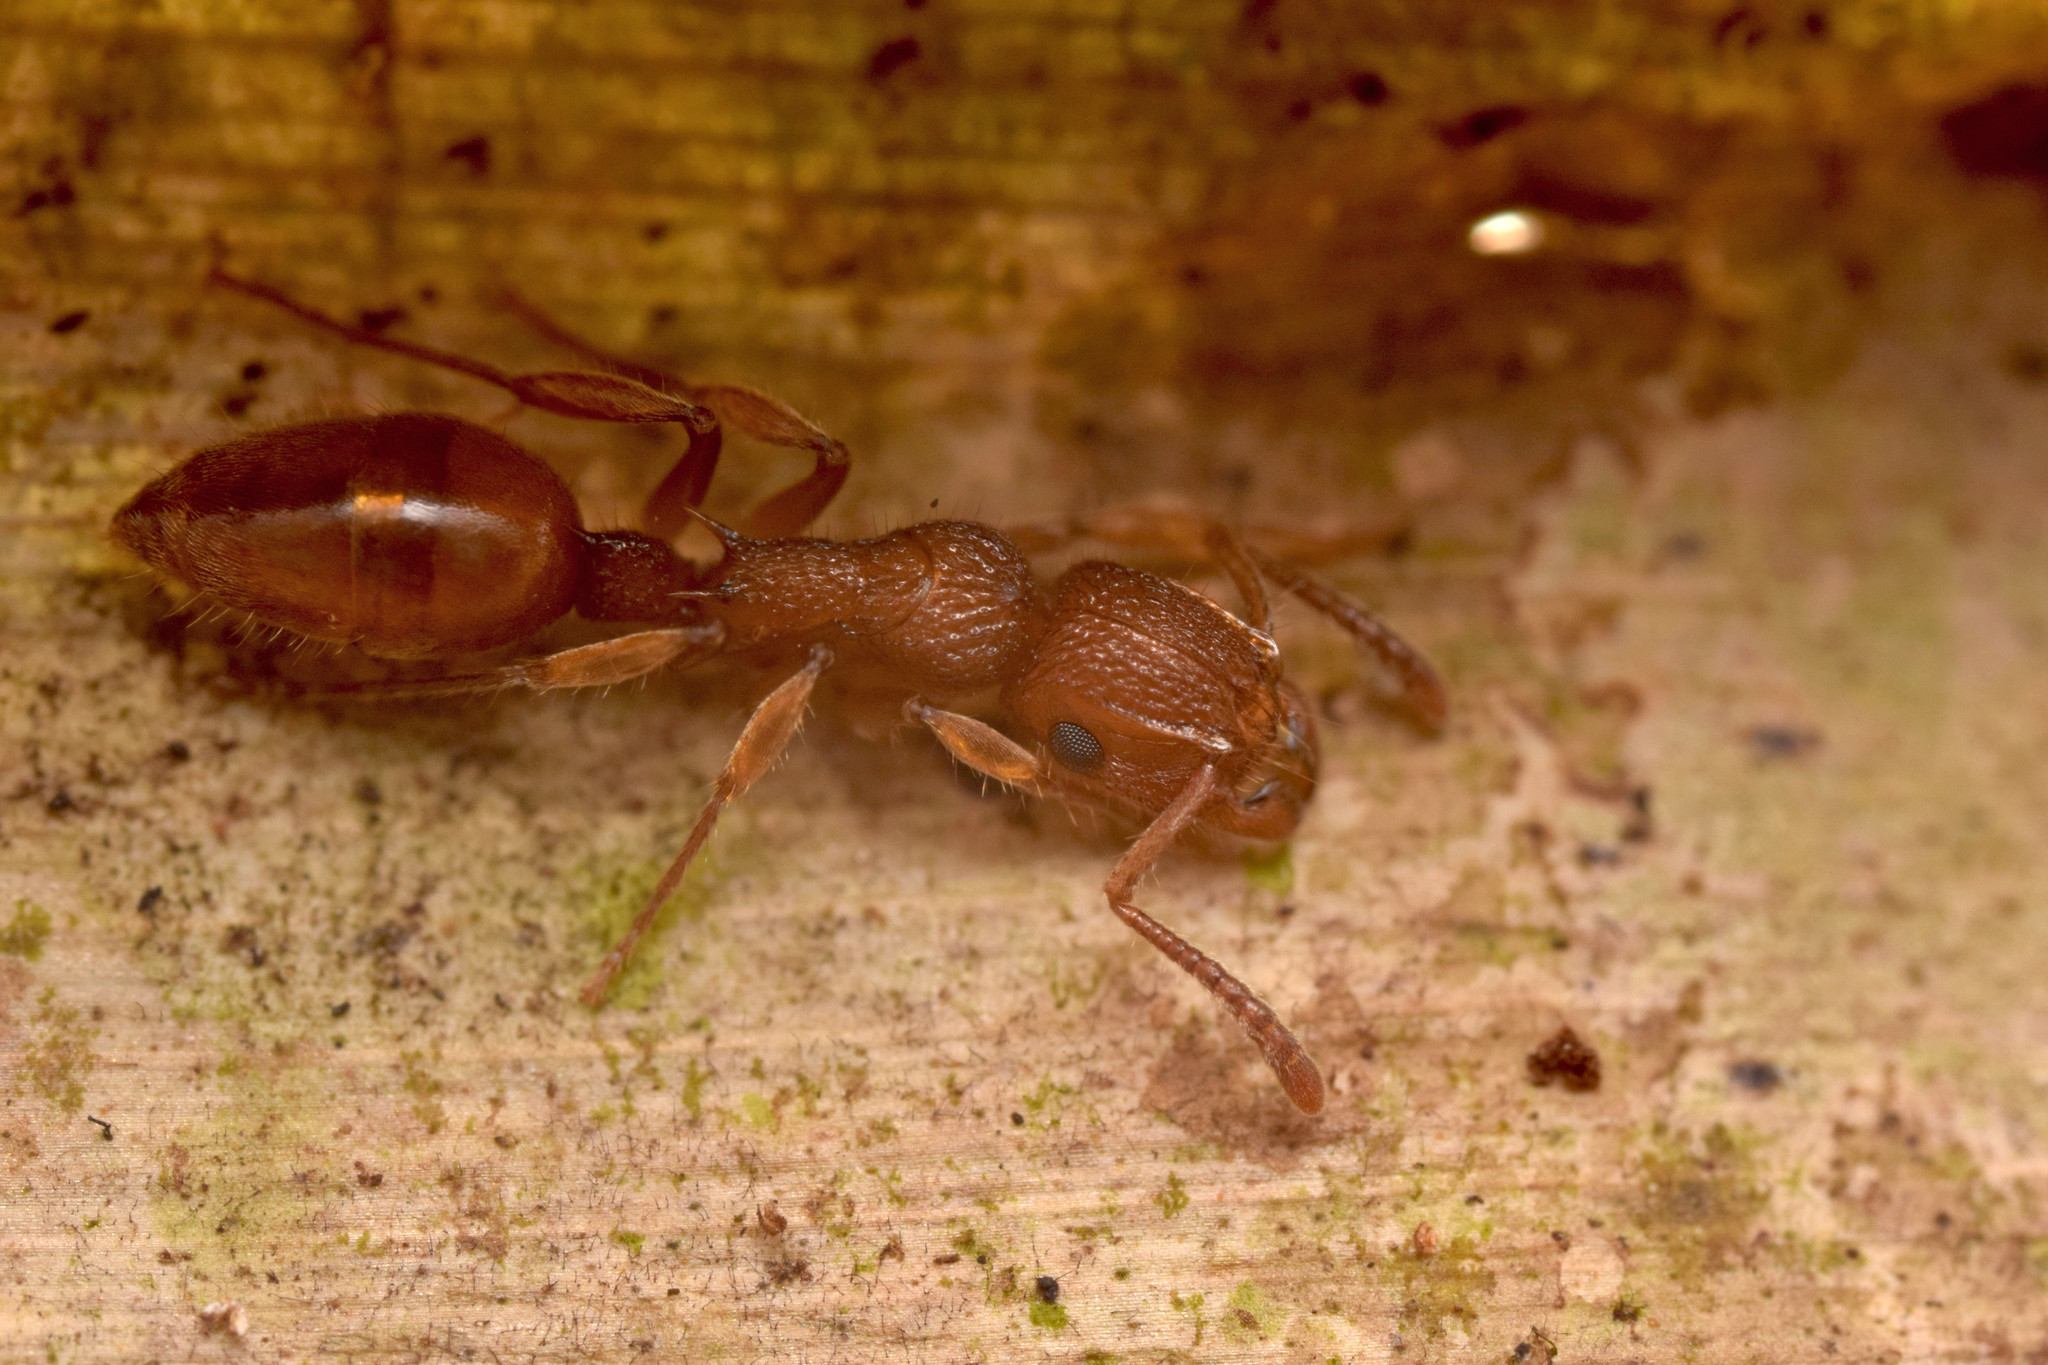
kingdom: Animalia
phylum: Arthropoda
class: Insecta
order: Hymenoptera
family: Formicidae
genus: Acanthoponera
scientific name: Acanthoponera minor
